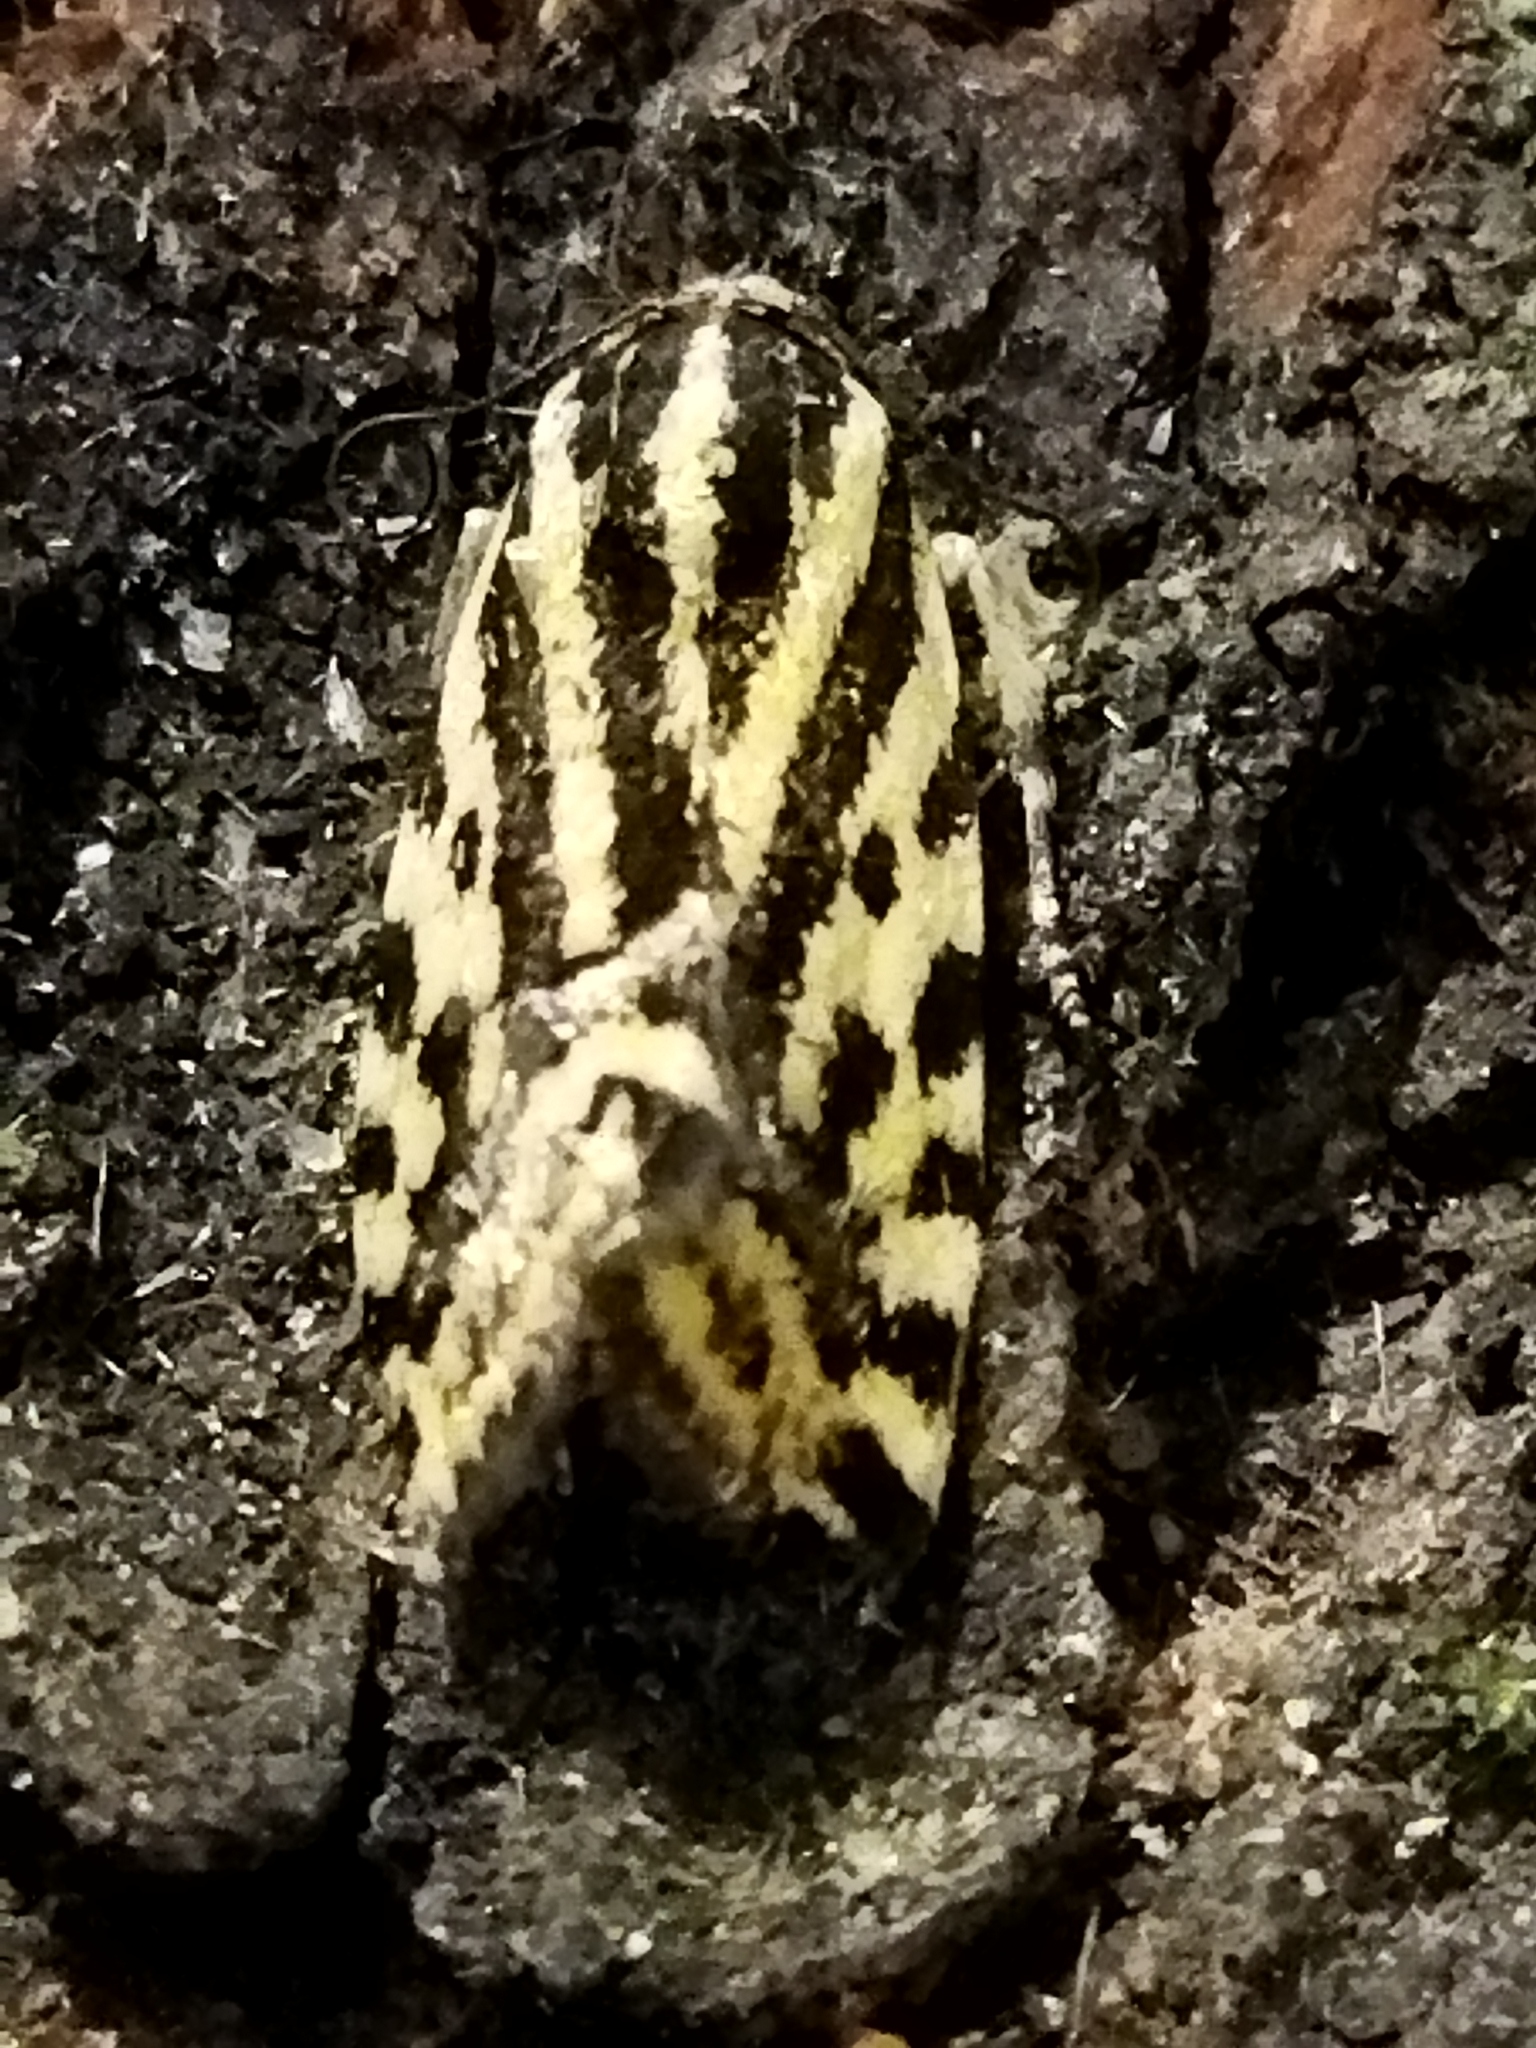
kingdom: Animalia
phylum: Arthropoda
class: Insecta
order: Lepidoptera
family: Noctuidae
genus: Acontia
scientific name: Acontia trabealis
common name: Spotted sulphur
